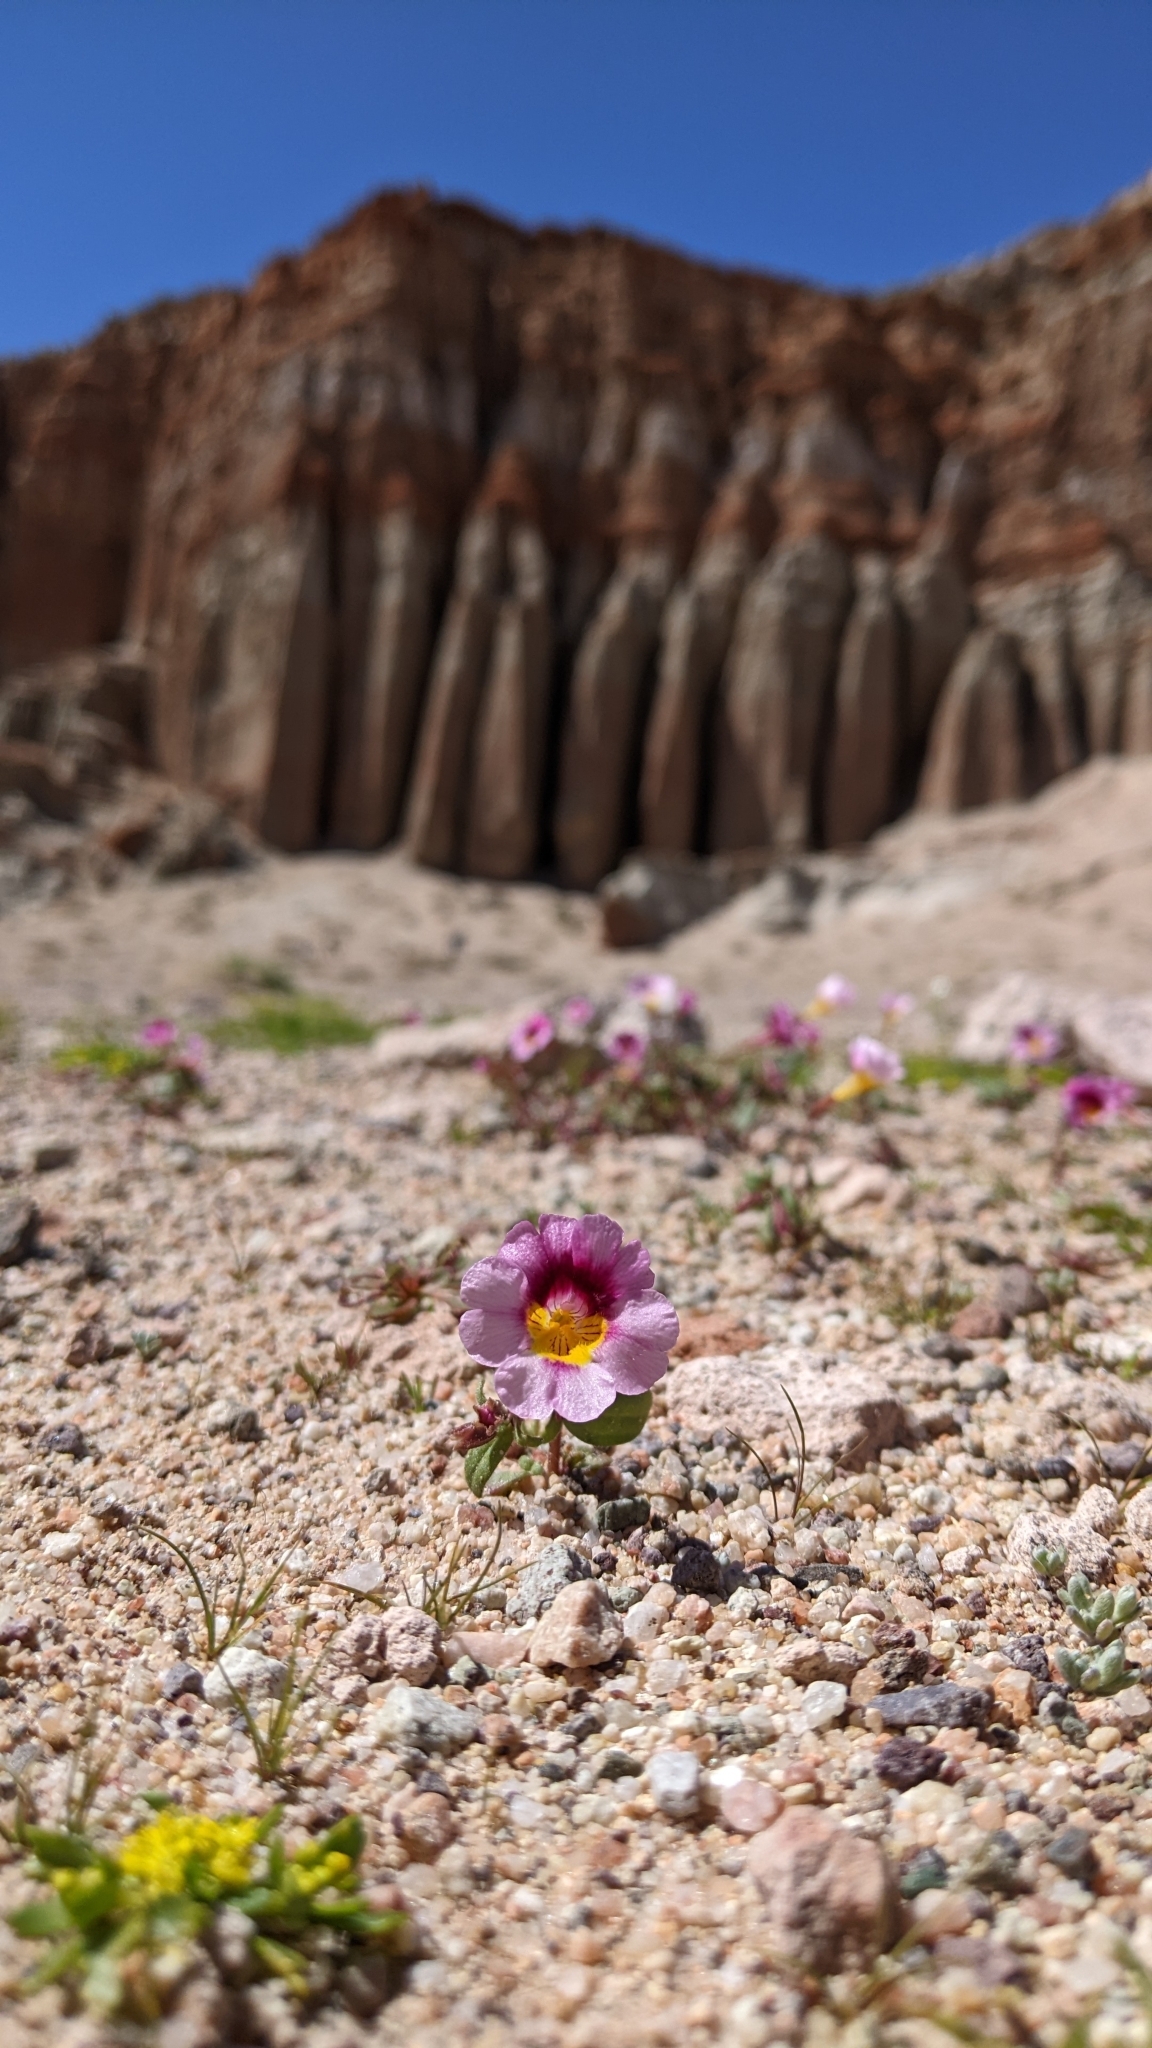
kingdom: Plantae
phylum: Tracheophyta
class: Magnoliopsida
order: Lamiales
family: Phrymaceae
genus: Erythranthe
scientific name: Erythranthe rhodopetra
